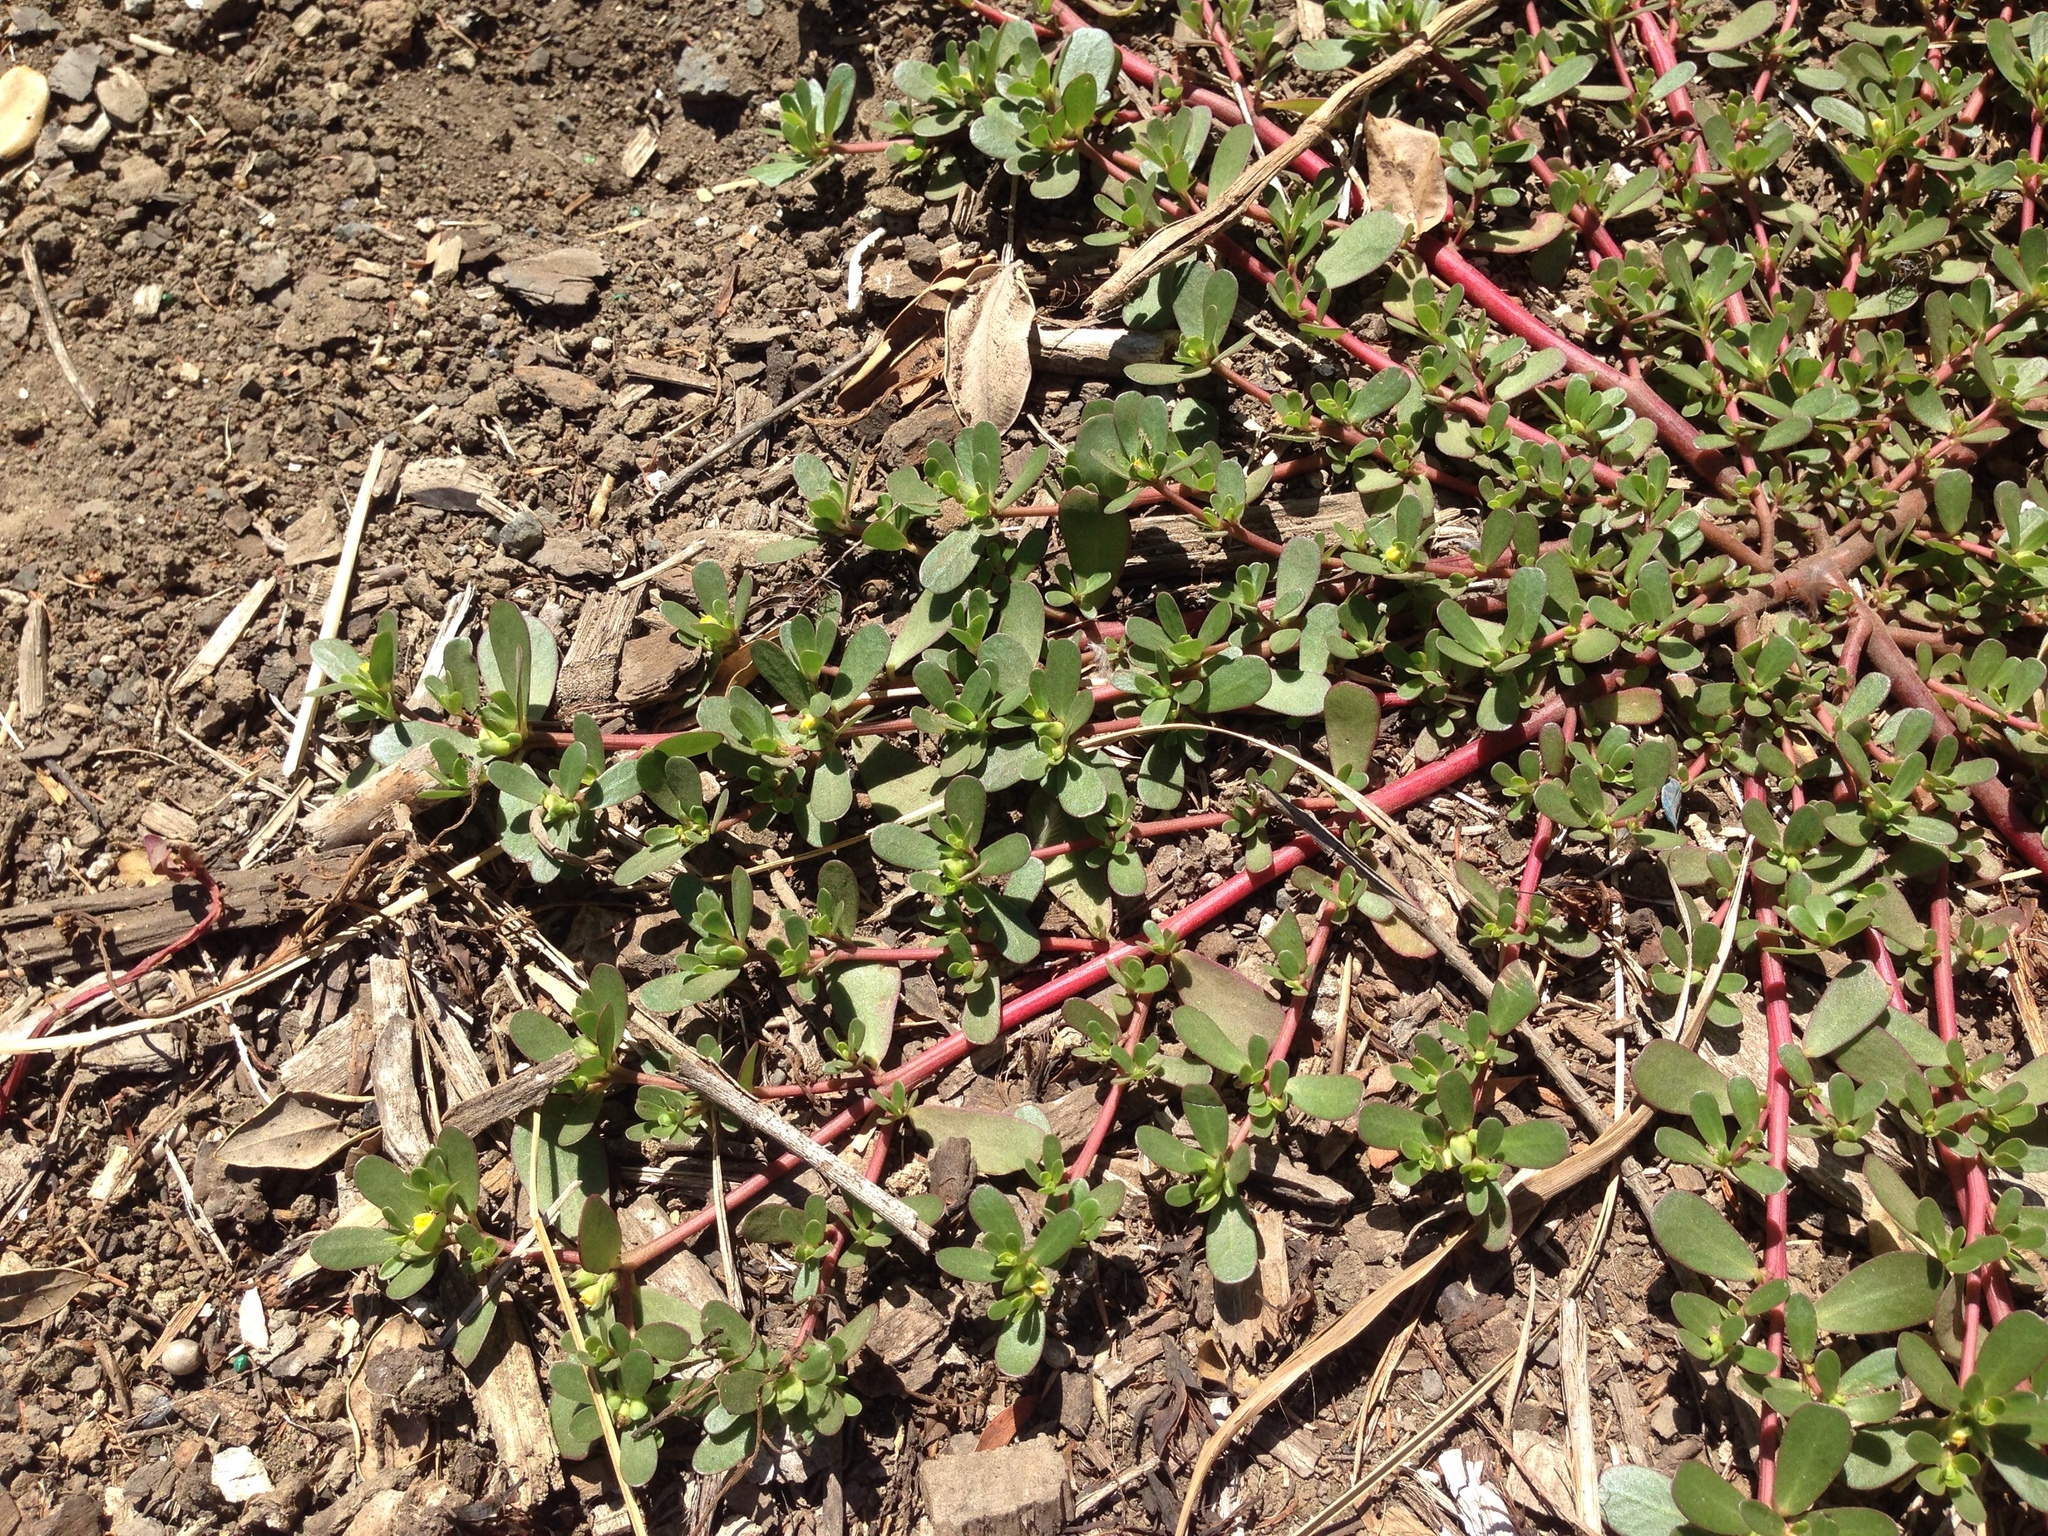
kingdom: Plantae
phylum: Tracheophyta
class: Magnoliopsida
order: Caryophyllales
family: Portulacaceae
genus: Portulaca
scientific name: Portulaca oleracea
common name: Common purslane
